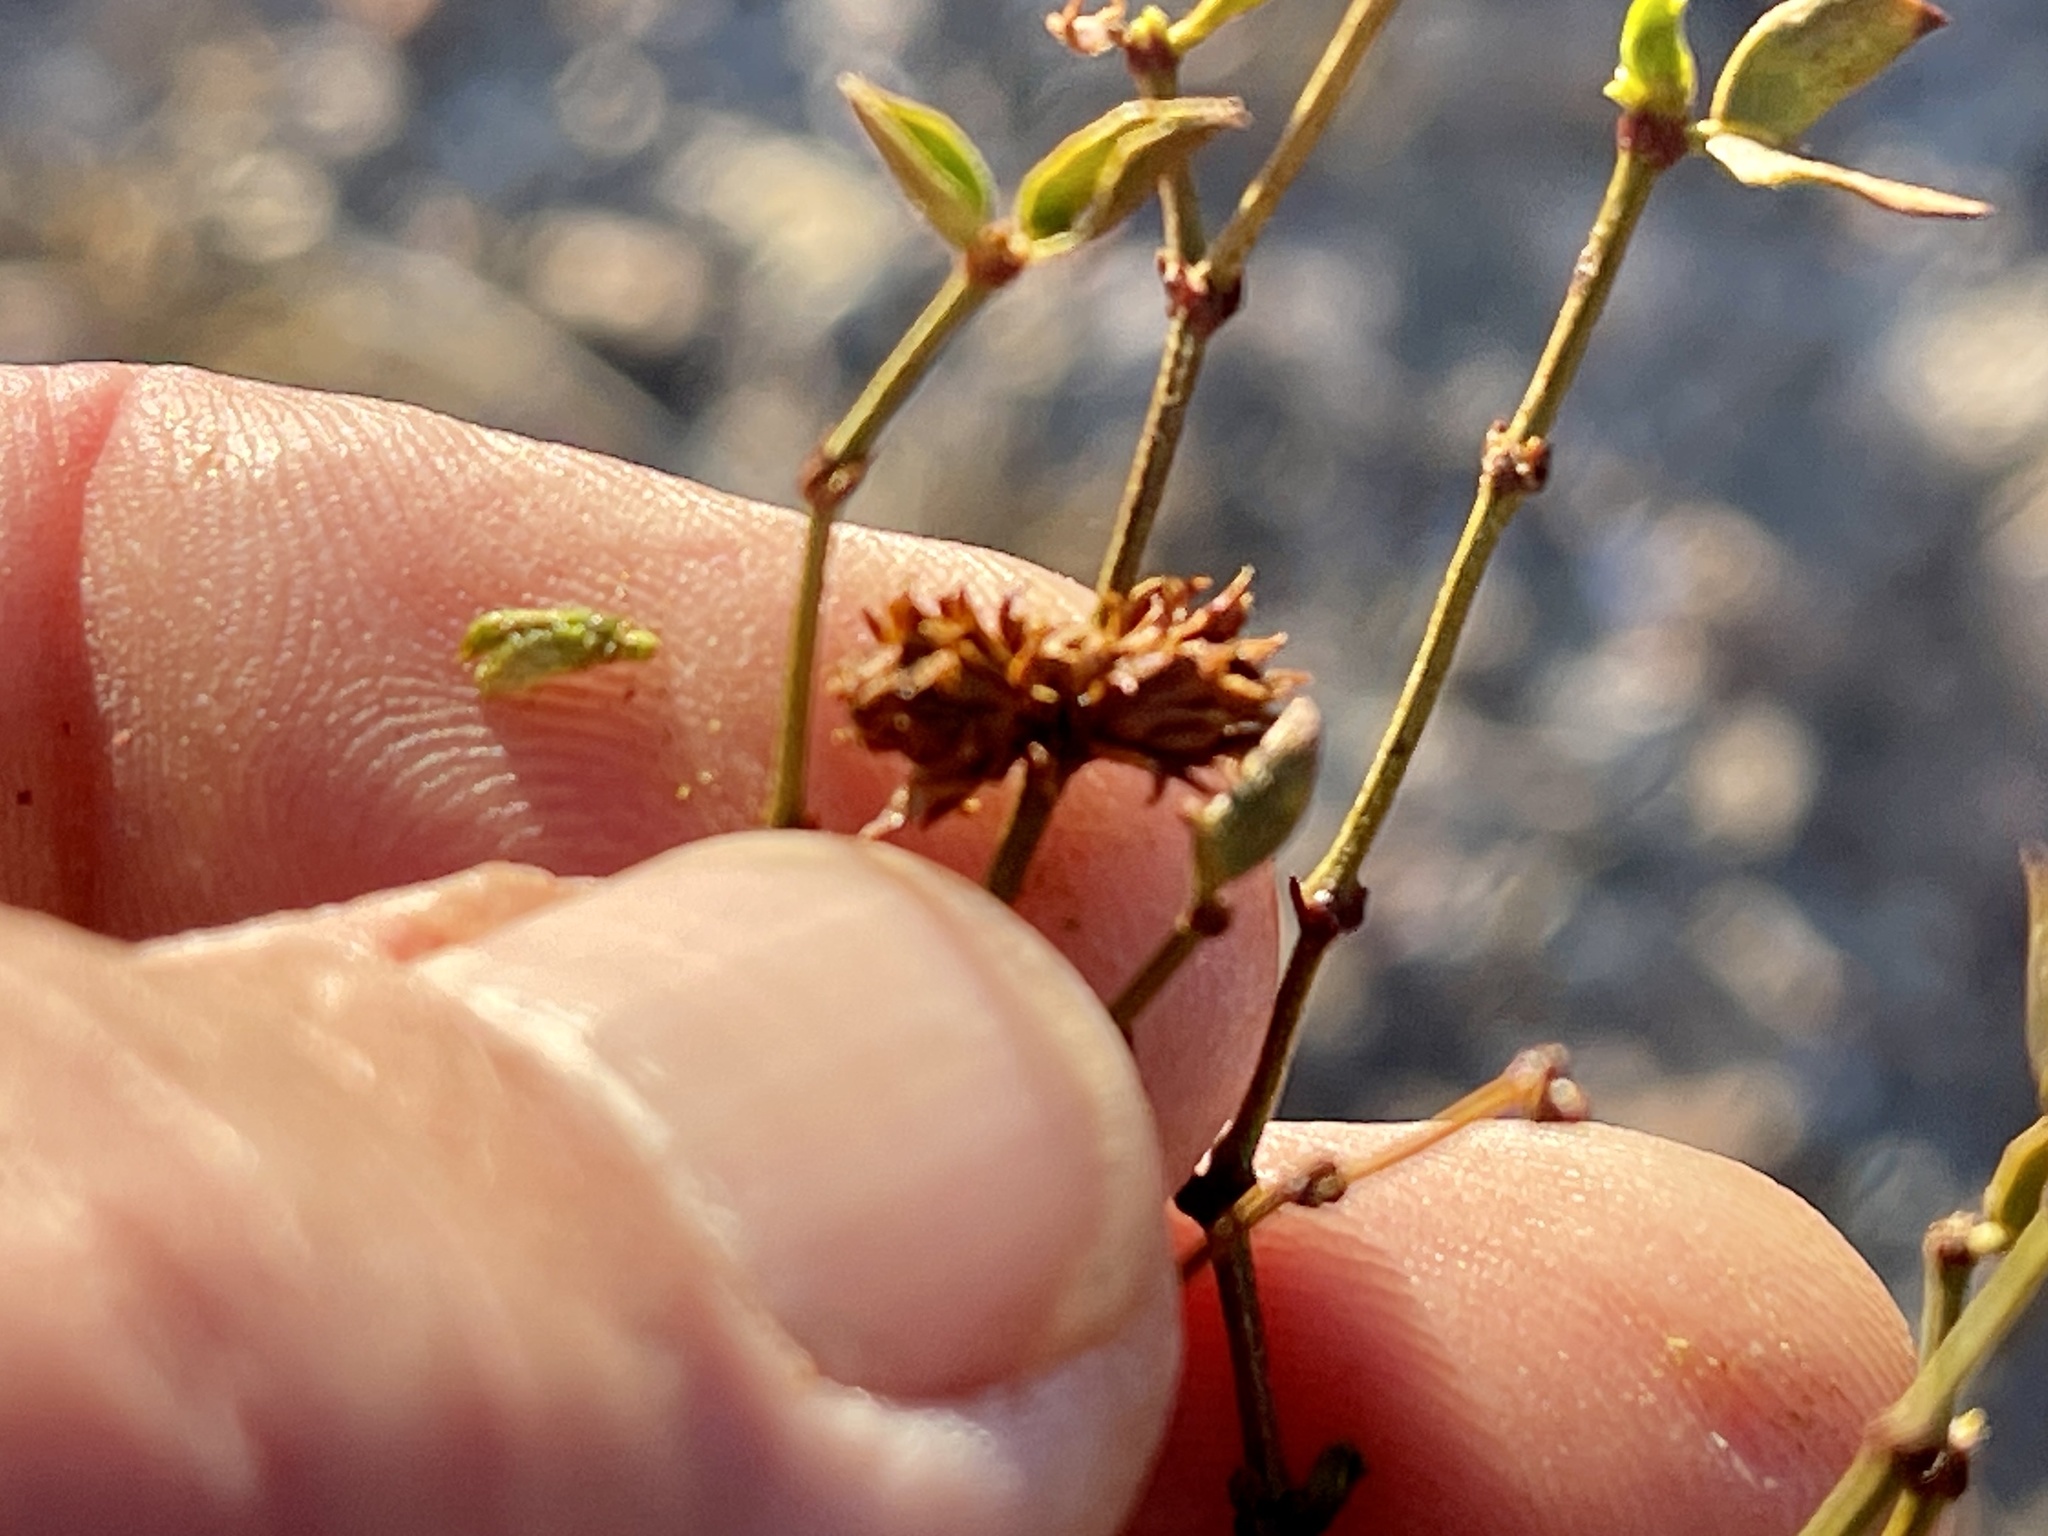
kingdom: Animalia
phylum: Arthropoda
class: Insecta
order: Diptera
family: Cecidomyiidae
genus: Asphondylia
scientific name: Asphondylia rosetta
